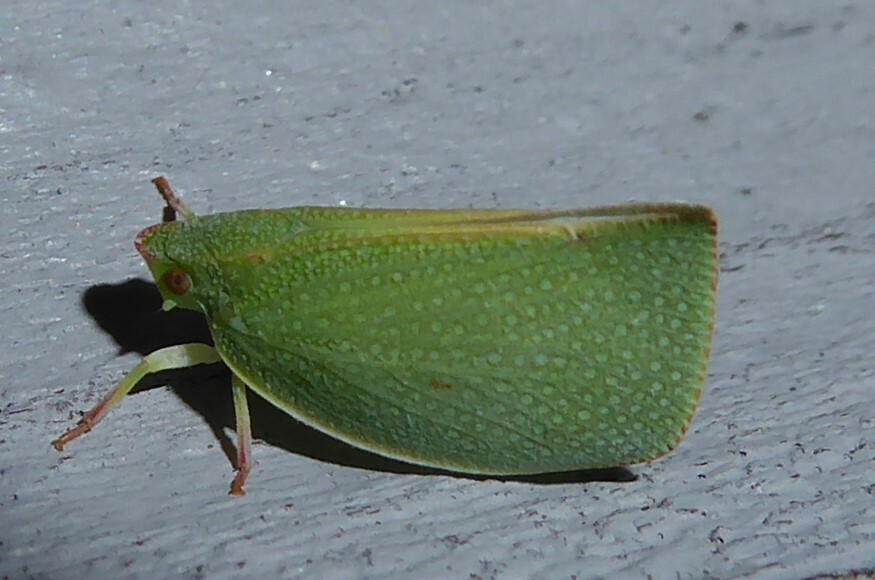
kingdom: Animalia
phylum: Arthropoda
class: Insecta
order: Hemiptera
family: Flatidae
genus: Siphanta
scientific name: Siphanta acuta
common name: Torpedo bug
